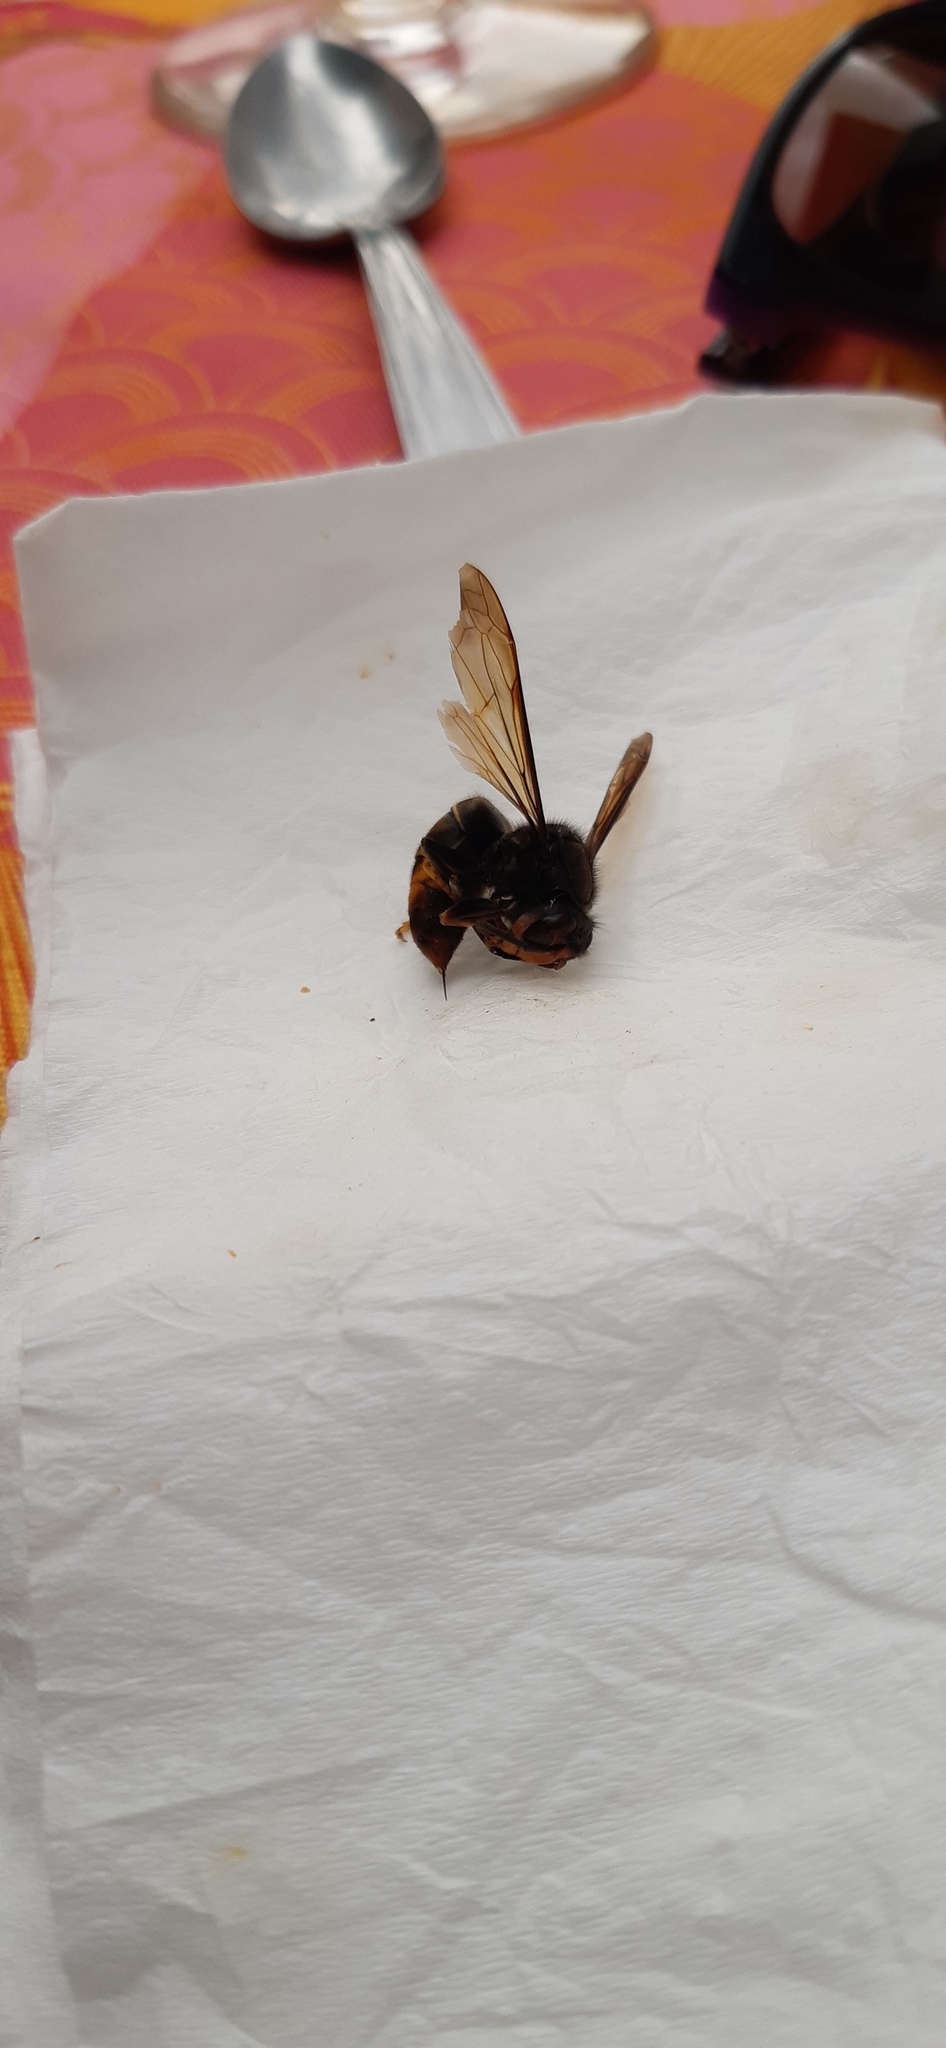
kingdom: Animalia
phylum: Arthropoda
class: Insecta
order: Hymenoptera
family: Vespidae
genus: Vespa
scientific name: Vespa velutina
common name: Asian hornet
